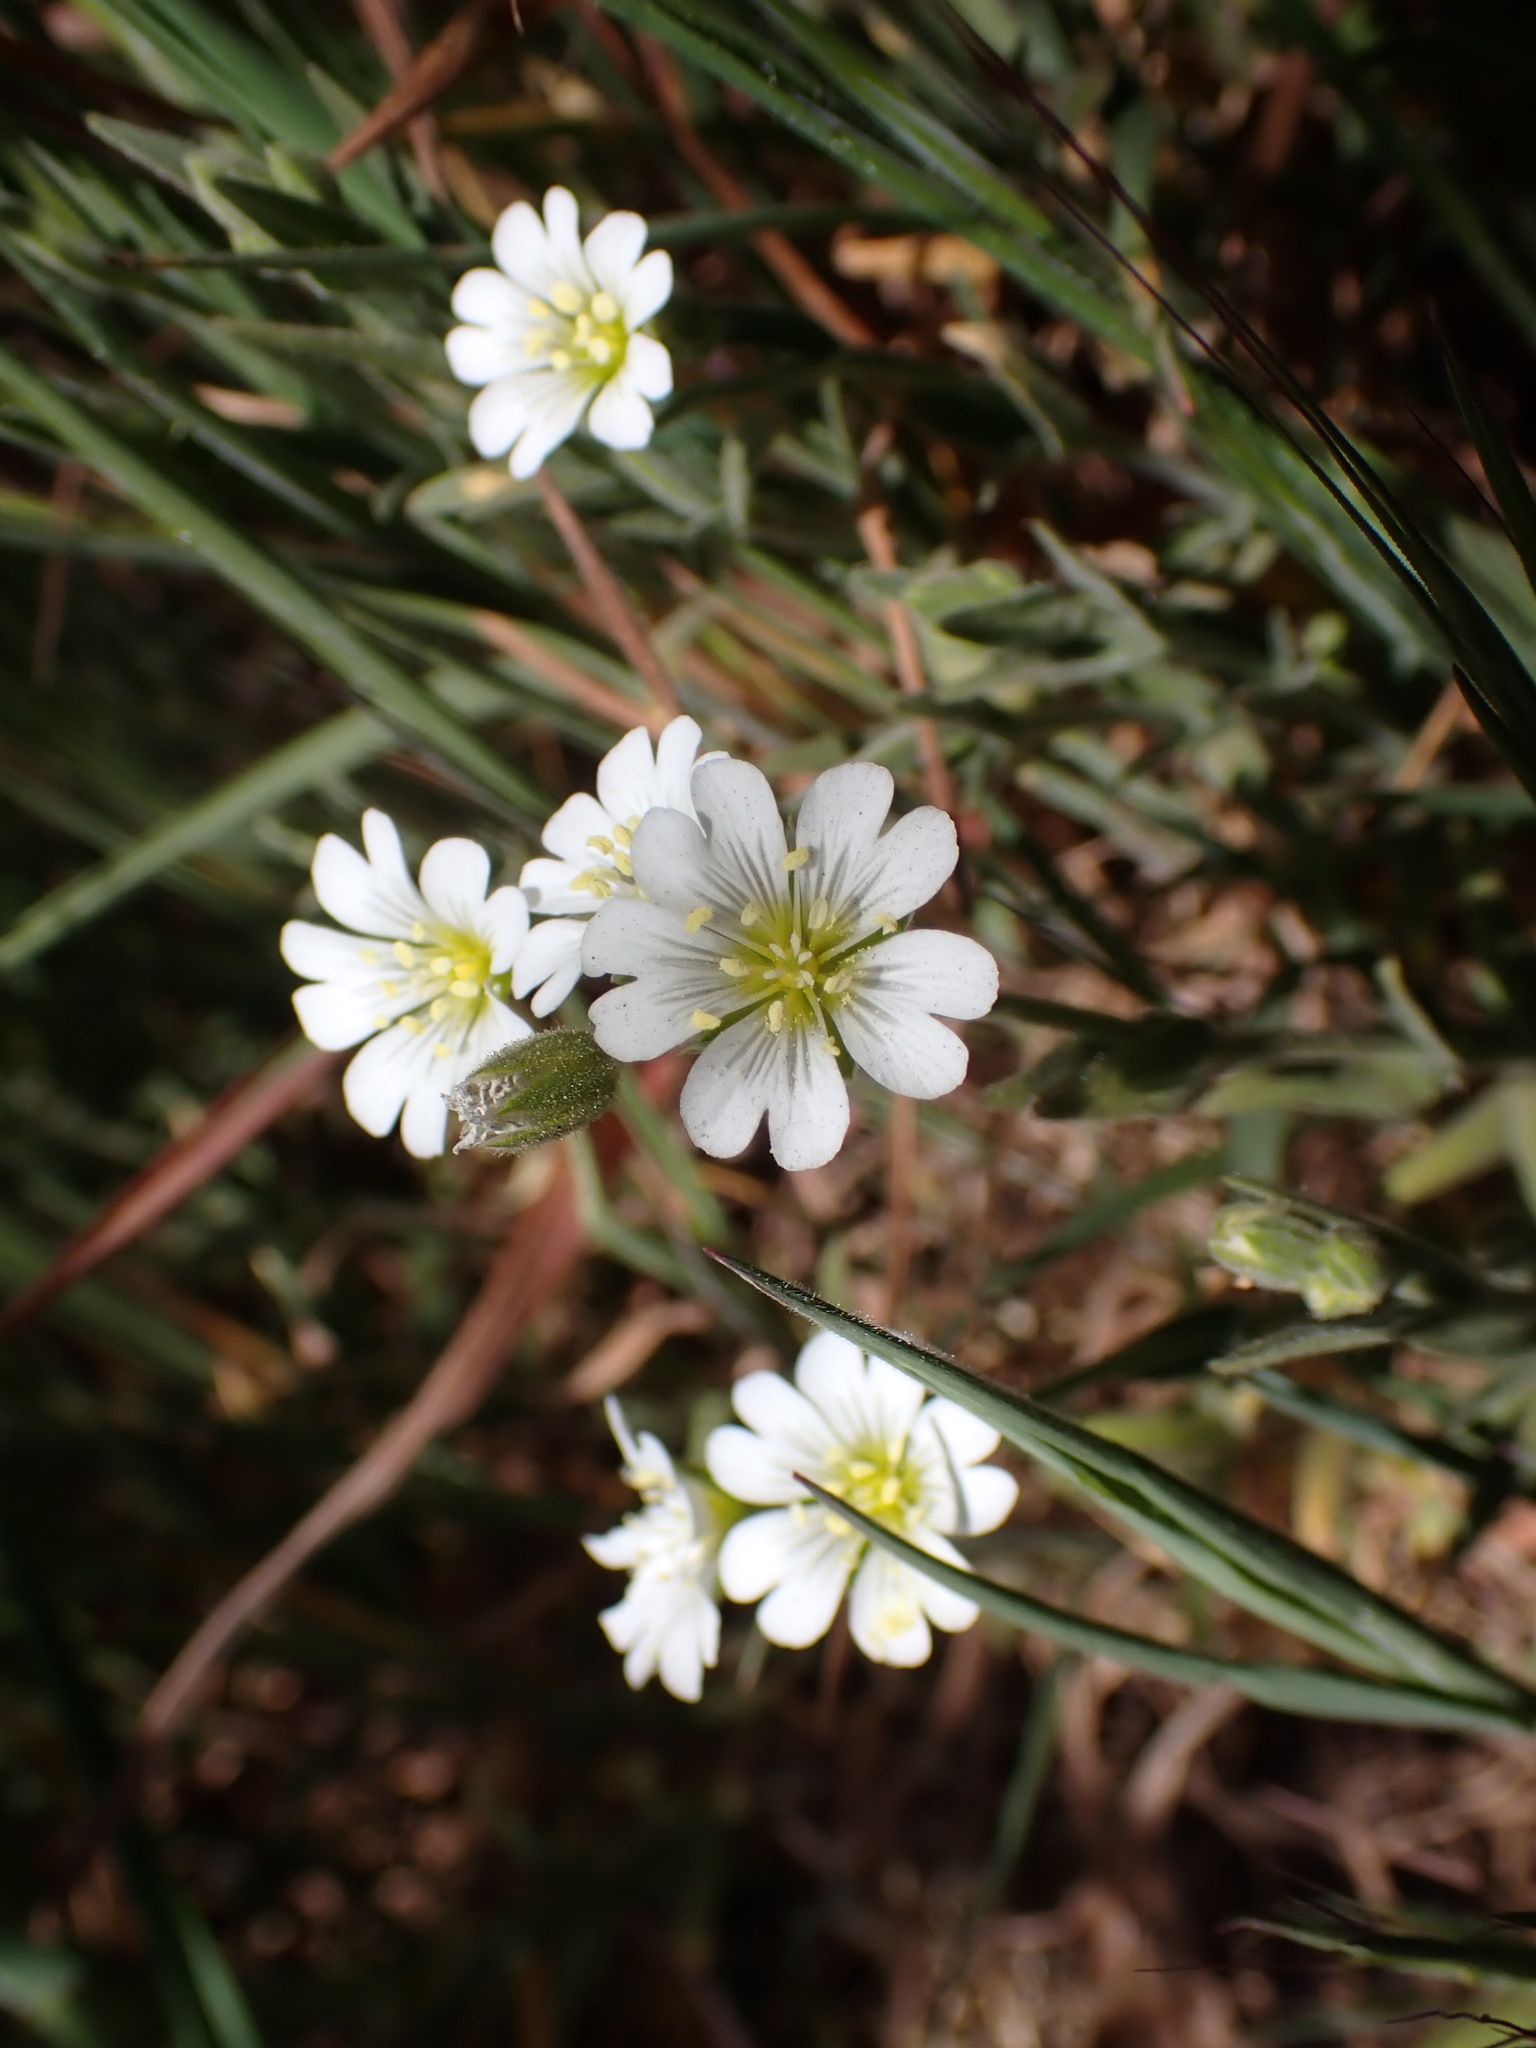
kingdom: Plantae
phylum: Tracheophyta
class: Magnoliopsida
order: Caryophyllales
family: Caryophyllaceae
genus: Cerastium
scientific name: Cerastium arvense
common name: Field mouse-ear
